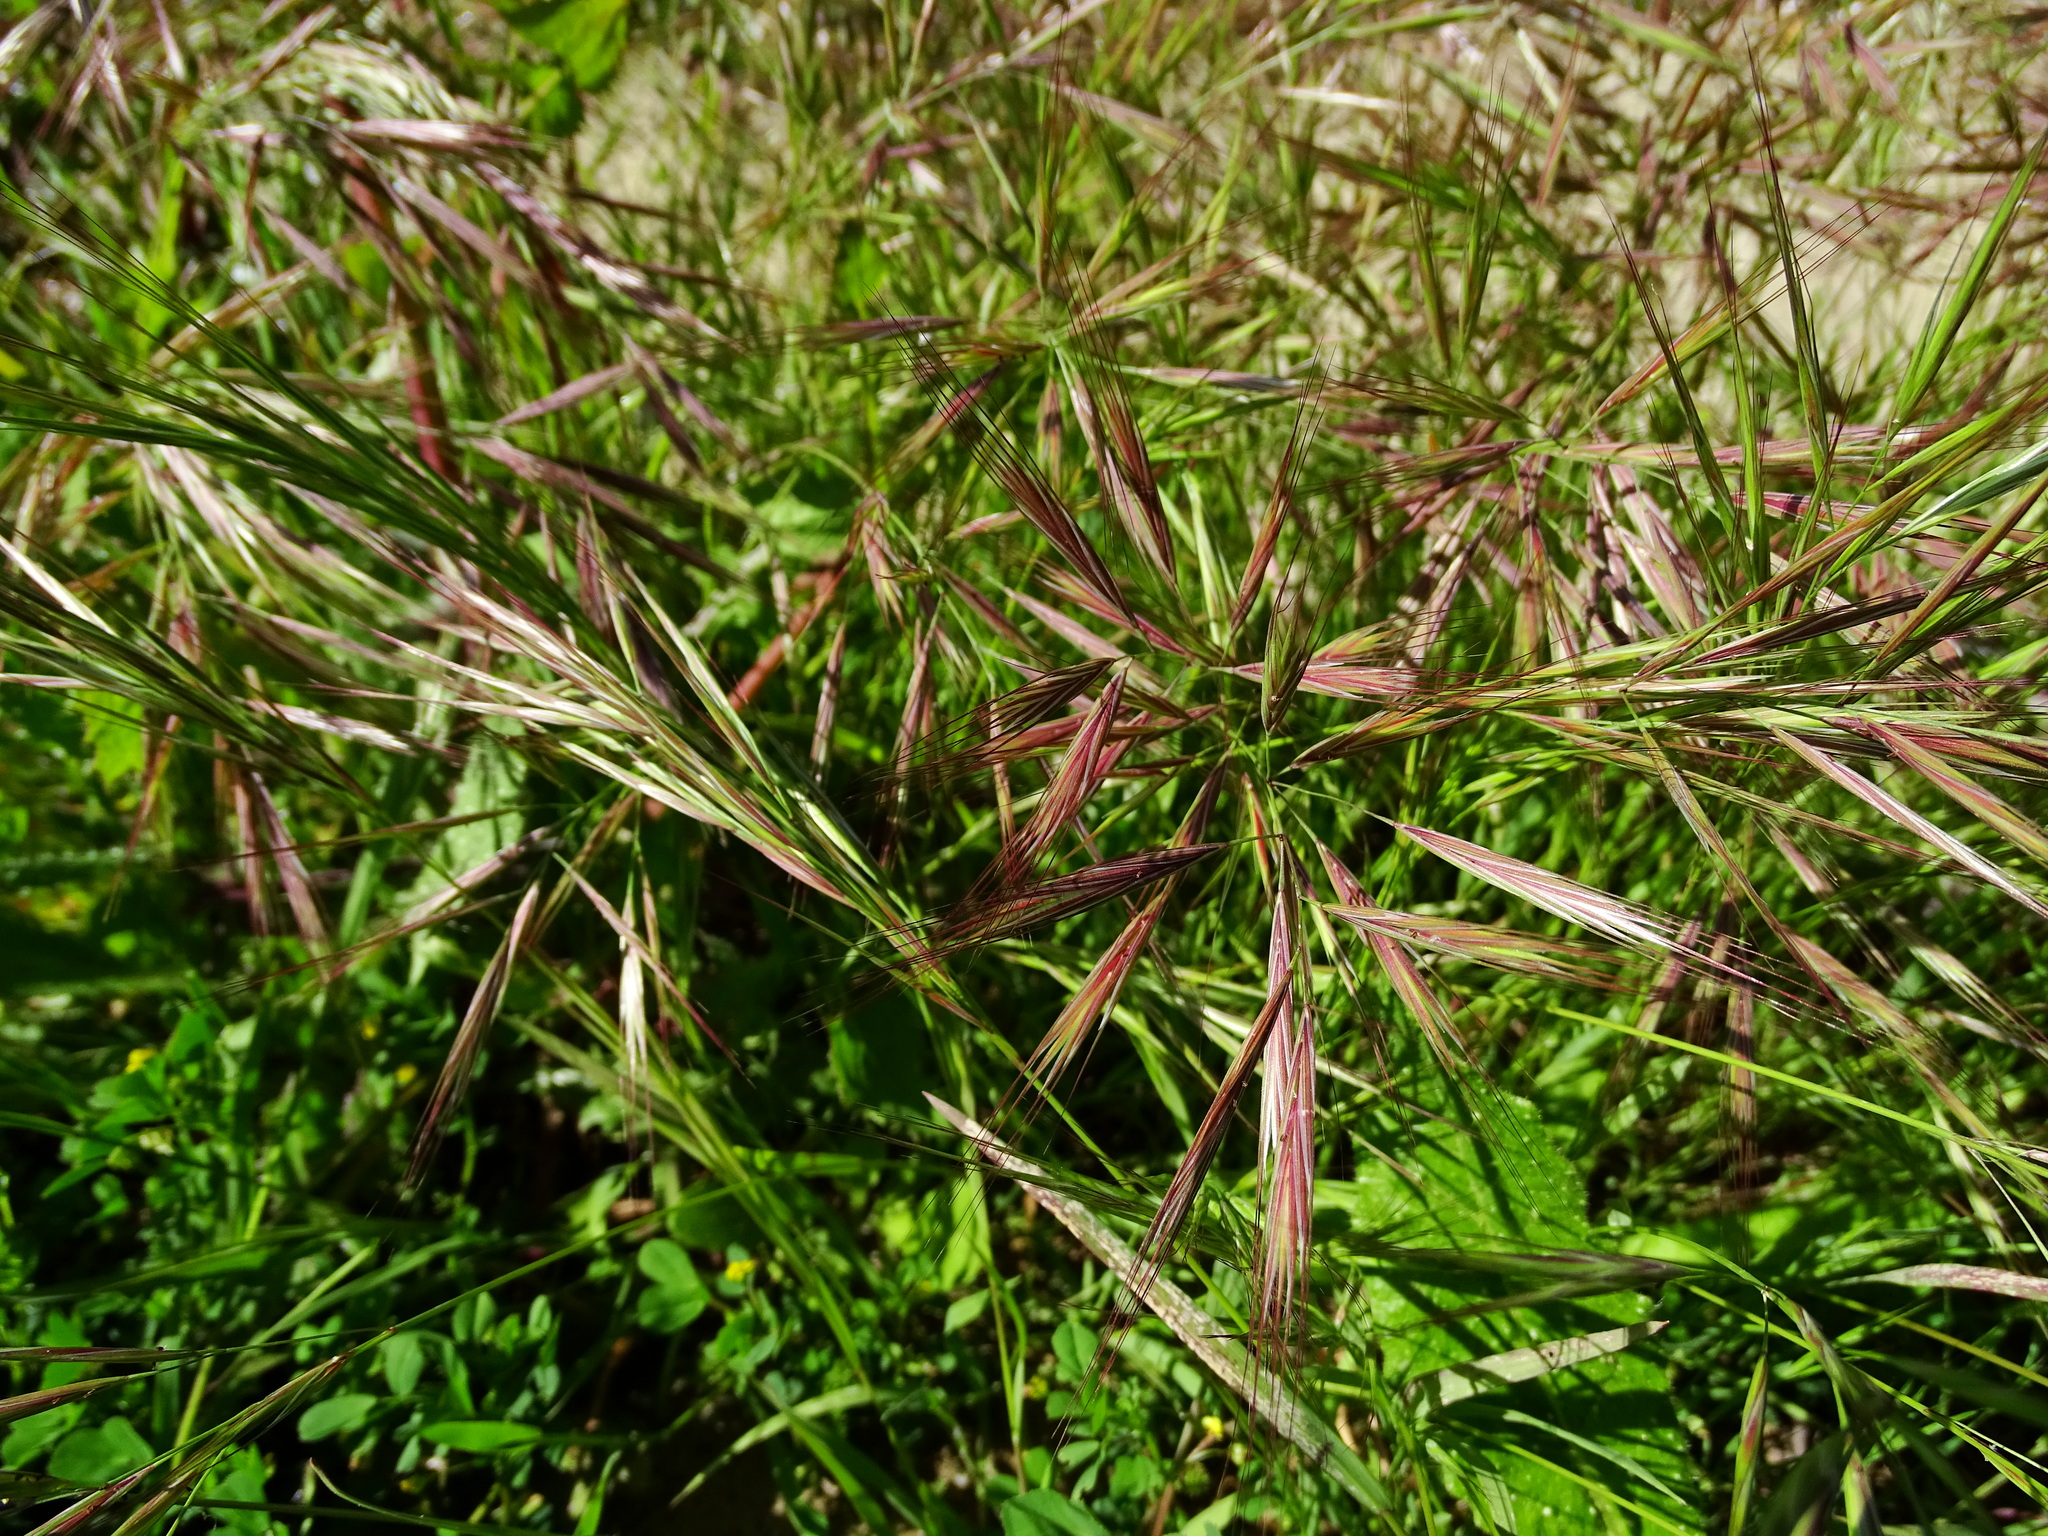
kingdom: Plantae
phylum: Tracheophyta
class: Liliopsida
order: Poales
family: Poaceae
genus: Bromus
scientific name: Bromus diandrus
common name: Ripgut brome
